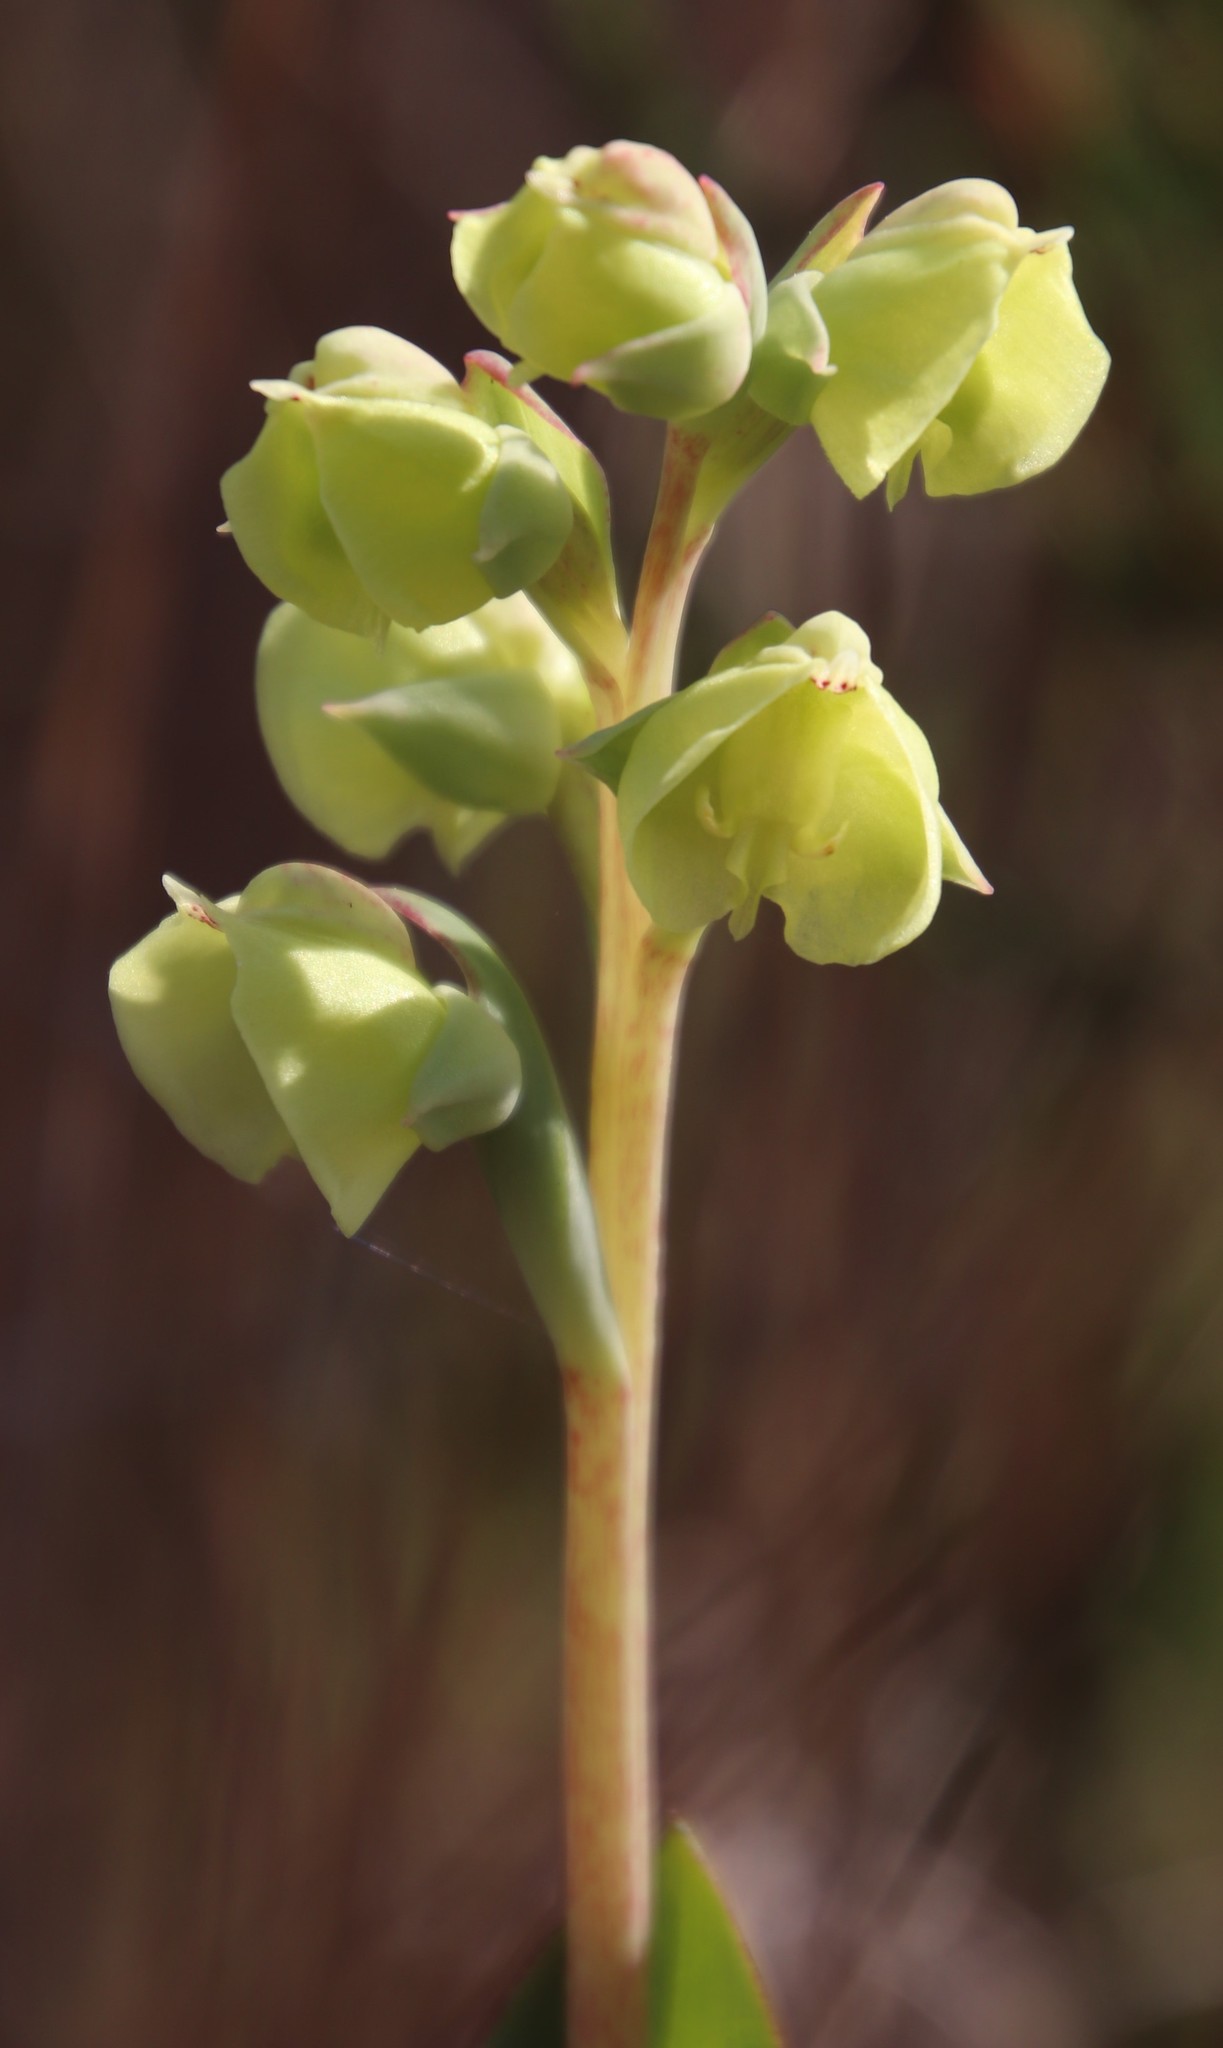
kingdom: Plantae
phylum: Tracheophyta
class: Liliopsida
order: Asparagales
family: Orchidaceae
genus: Pterygodium
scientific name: Pterygodium catholicum
